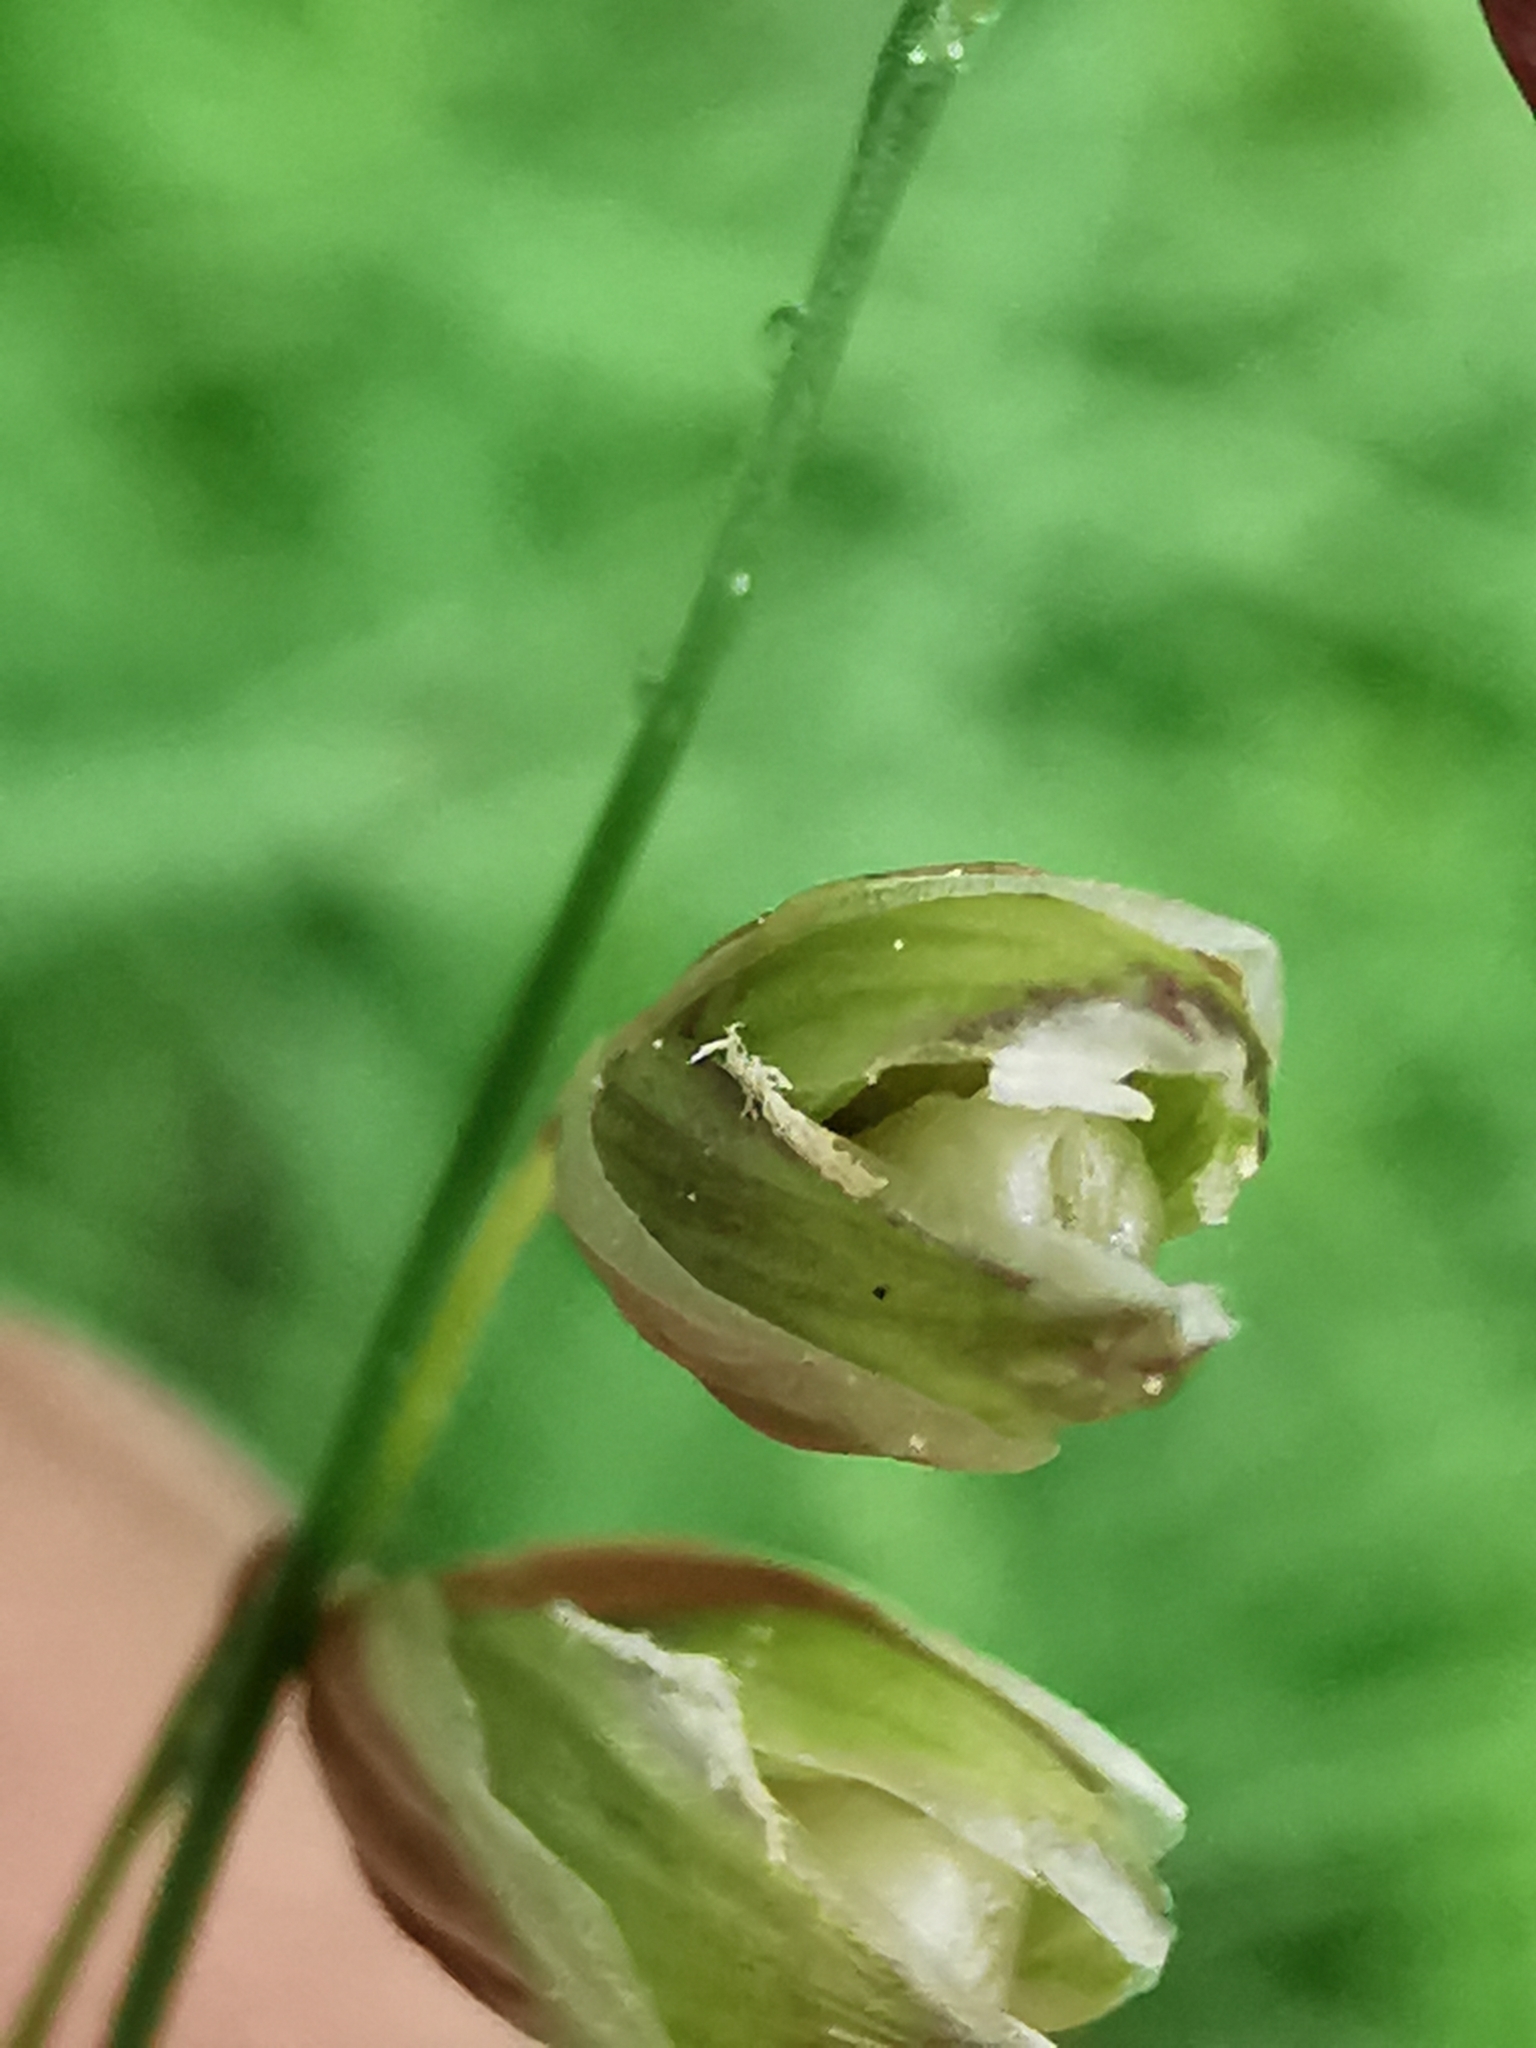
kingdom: Plantae
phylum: Tracheophyta
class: Liliopsida
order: Poales
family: Poaceae
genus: Melica
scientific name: Melica nutans
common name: Mountain melick
